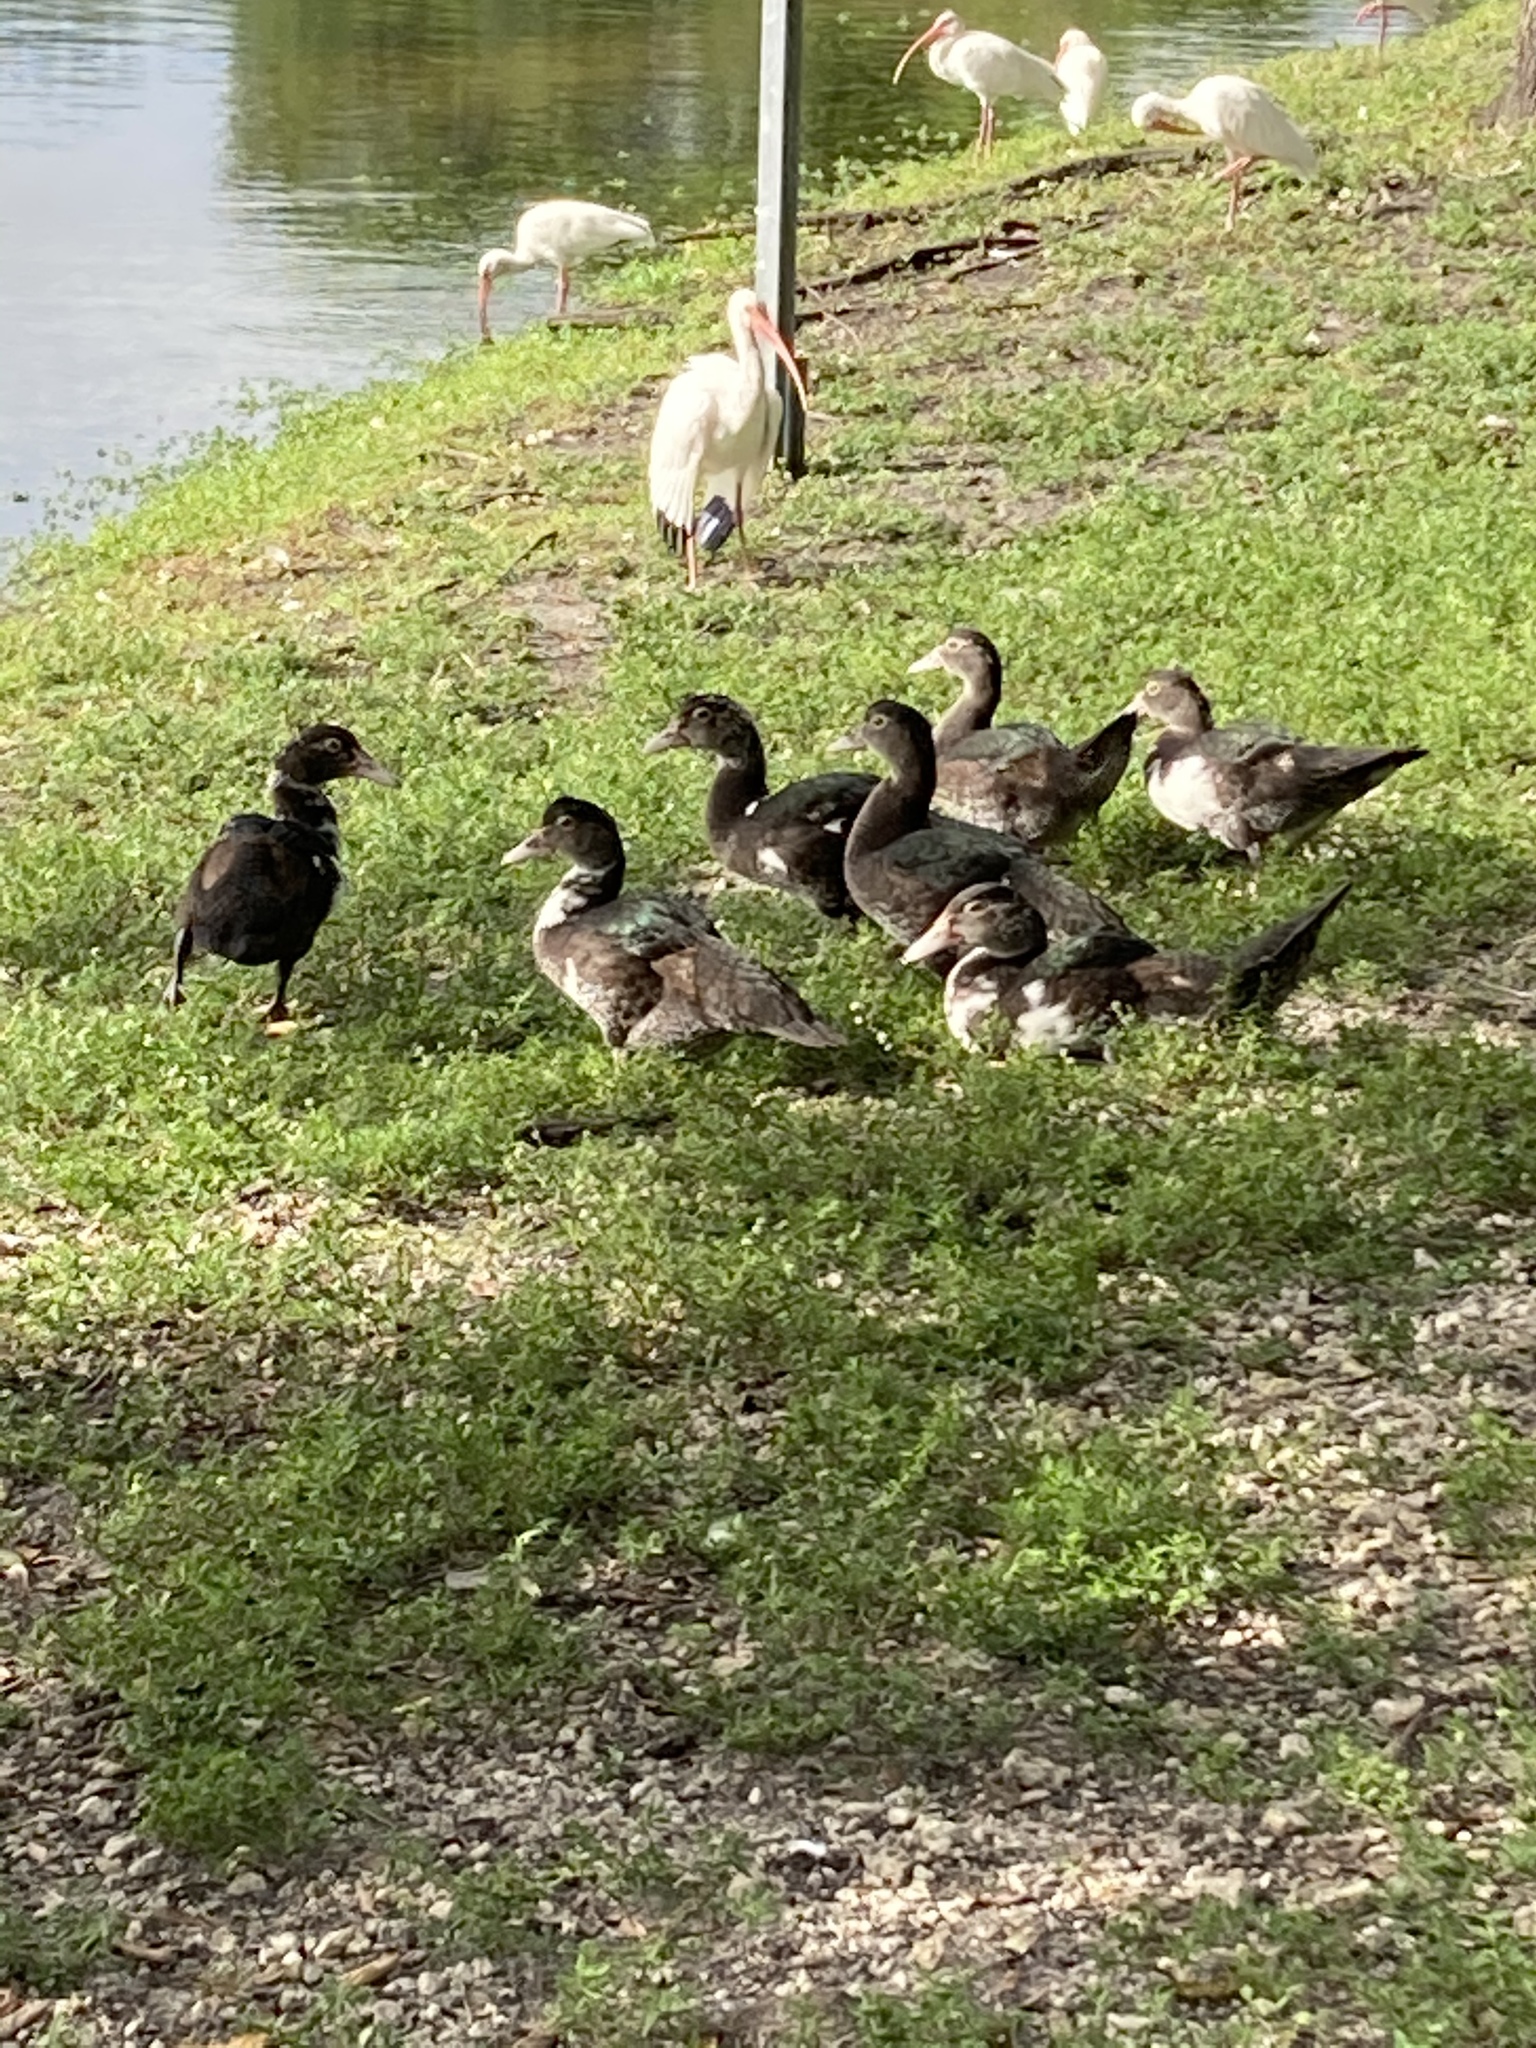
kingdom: Animalia
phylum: Chordata
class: Aves
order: Anseriformes
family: Anatidae
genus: Cairina
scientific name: Cairina moschata
